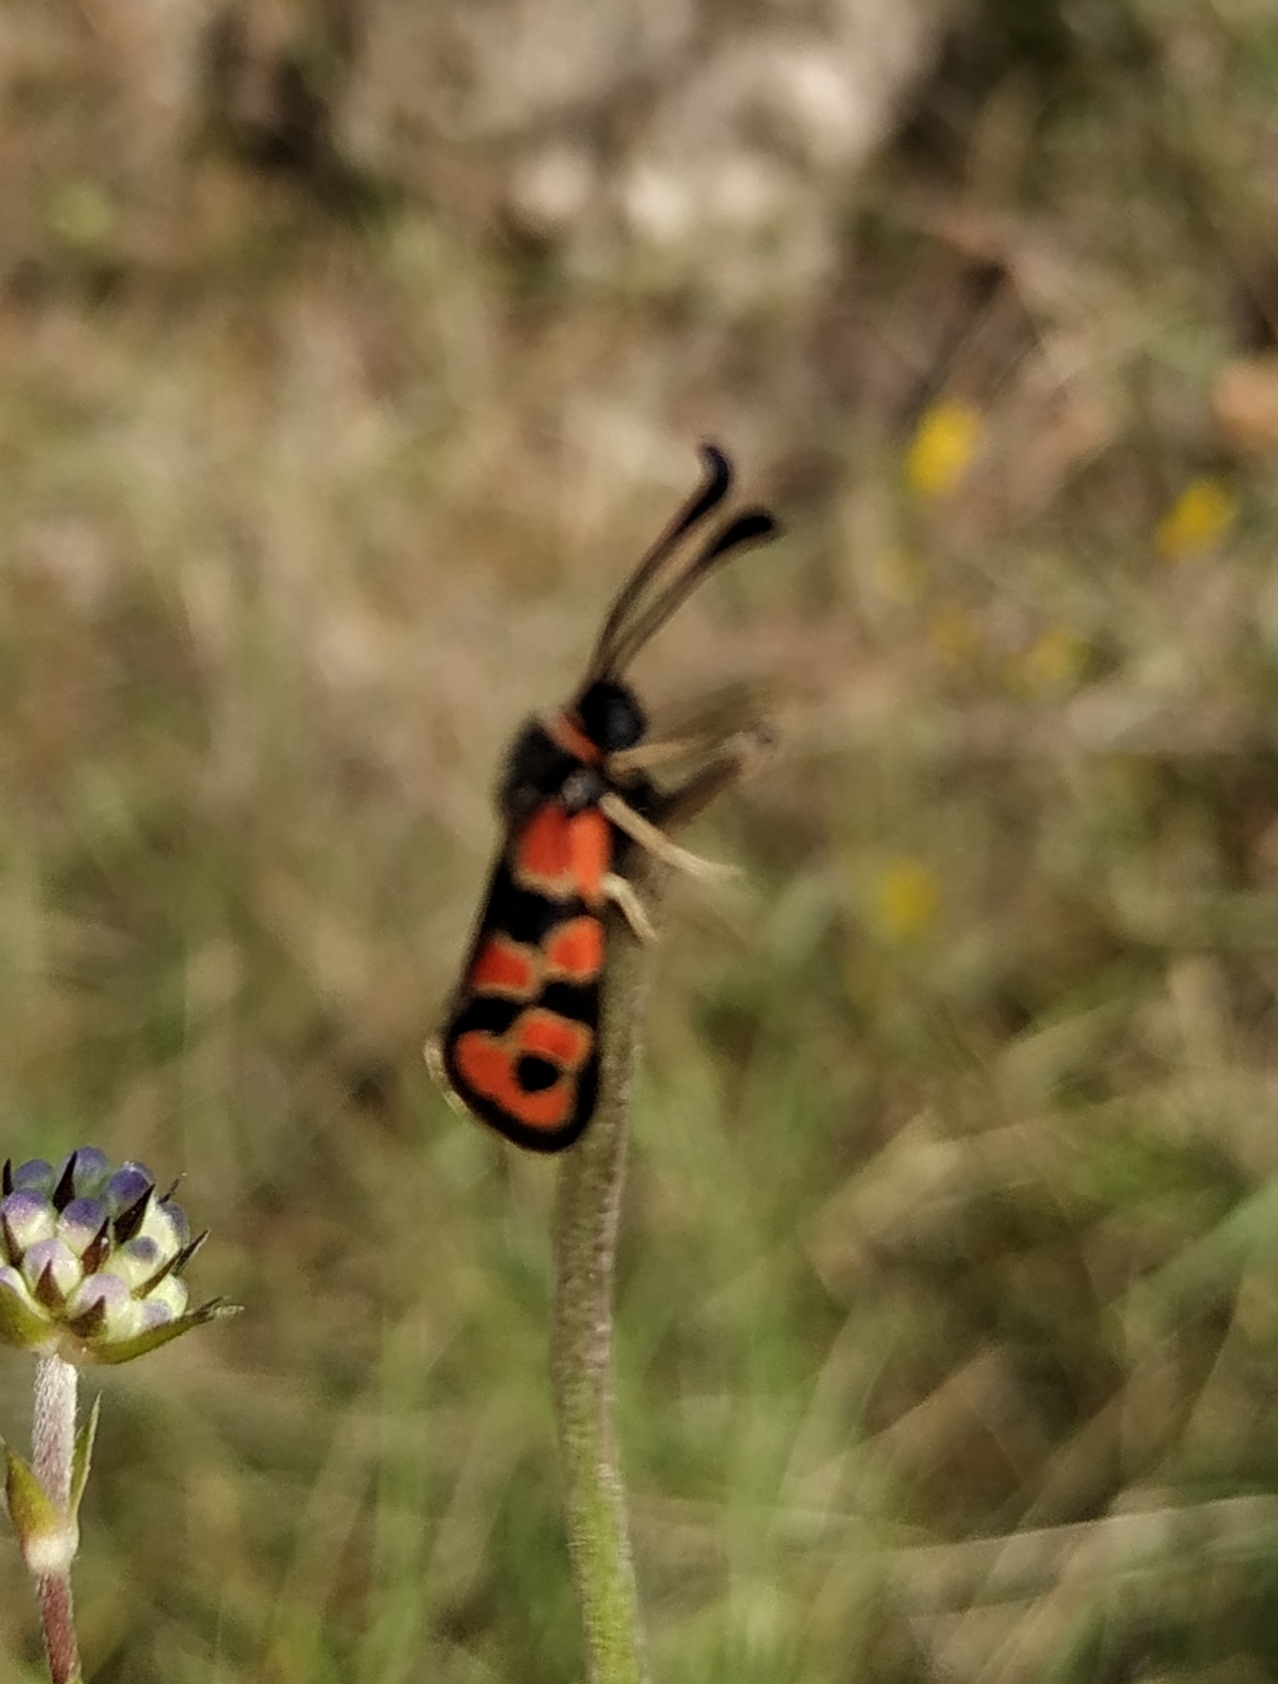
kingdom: Animalia
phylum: Arthropoda
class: Insecta
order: Lepidoptera
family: Zygaenidae
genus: Zygaena
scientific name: Zygaena fausta
